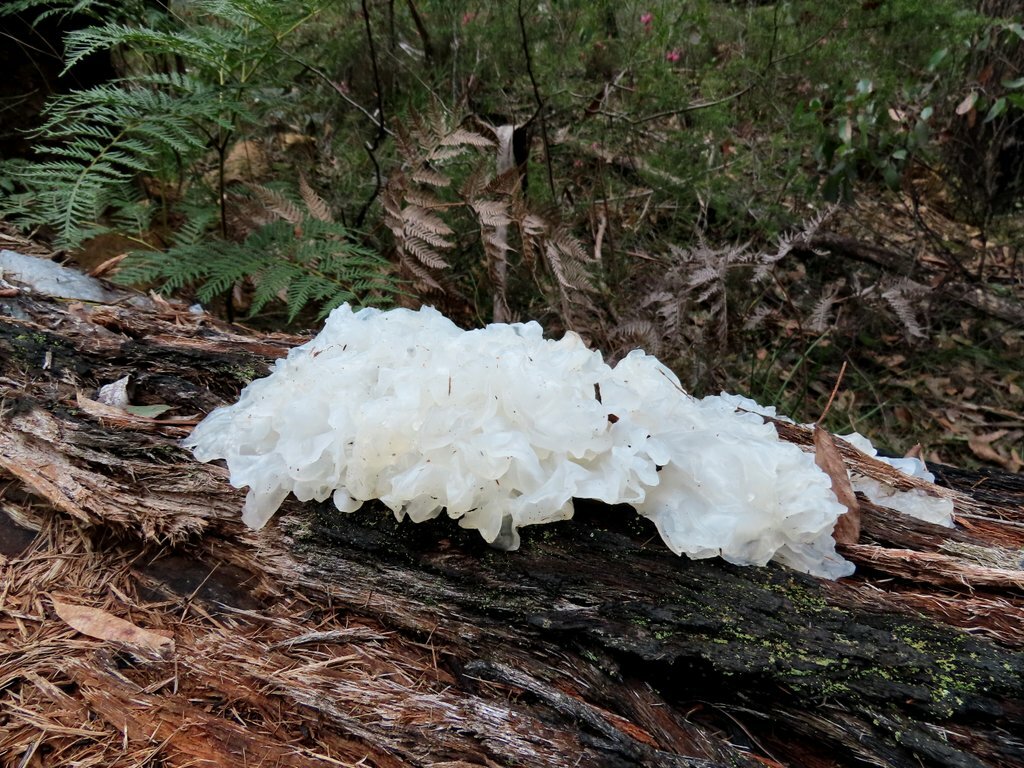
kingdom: Fungi
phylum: Basidiomycota
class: Tremellomycetes
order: Tremellales
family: Tremellaceae
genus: Tremella
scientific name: Tremella fuciformis
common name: Snow fungus
